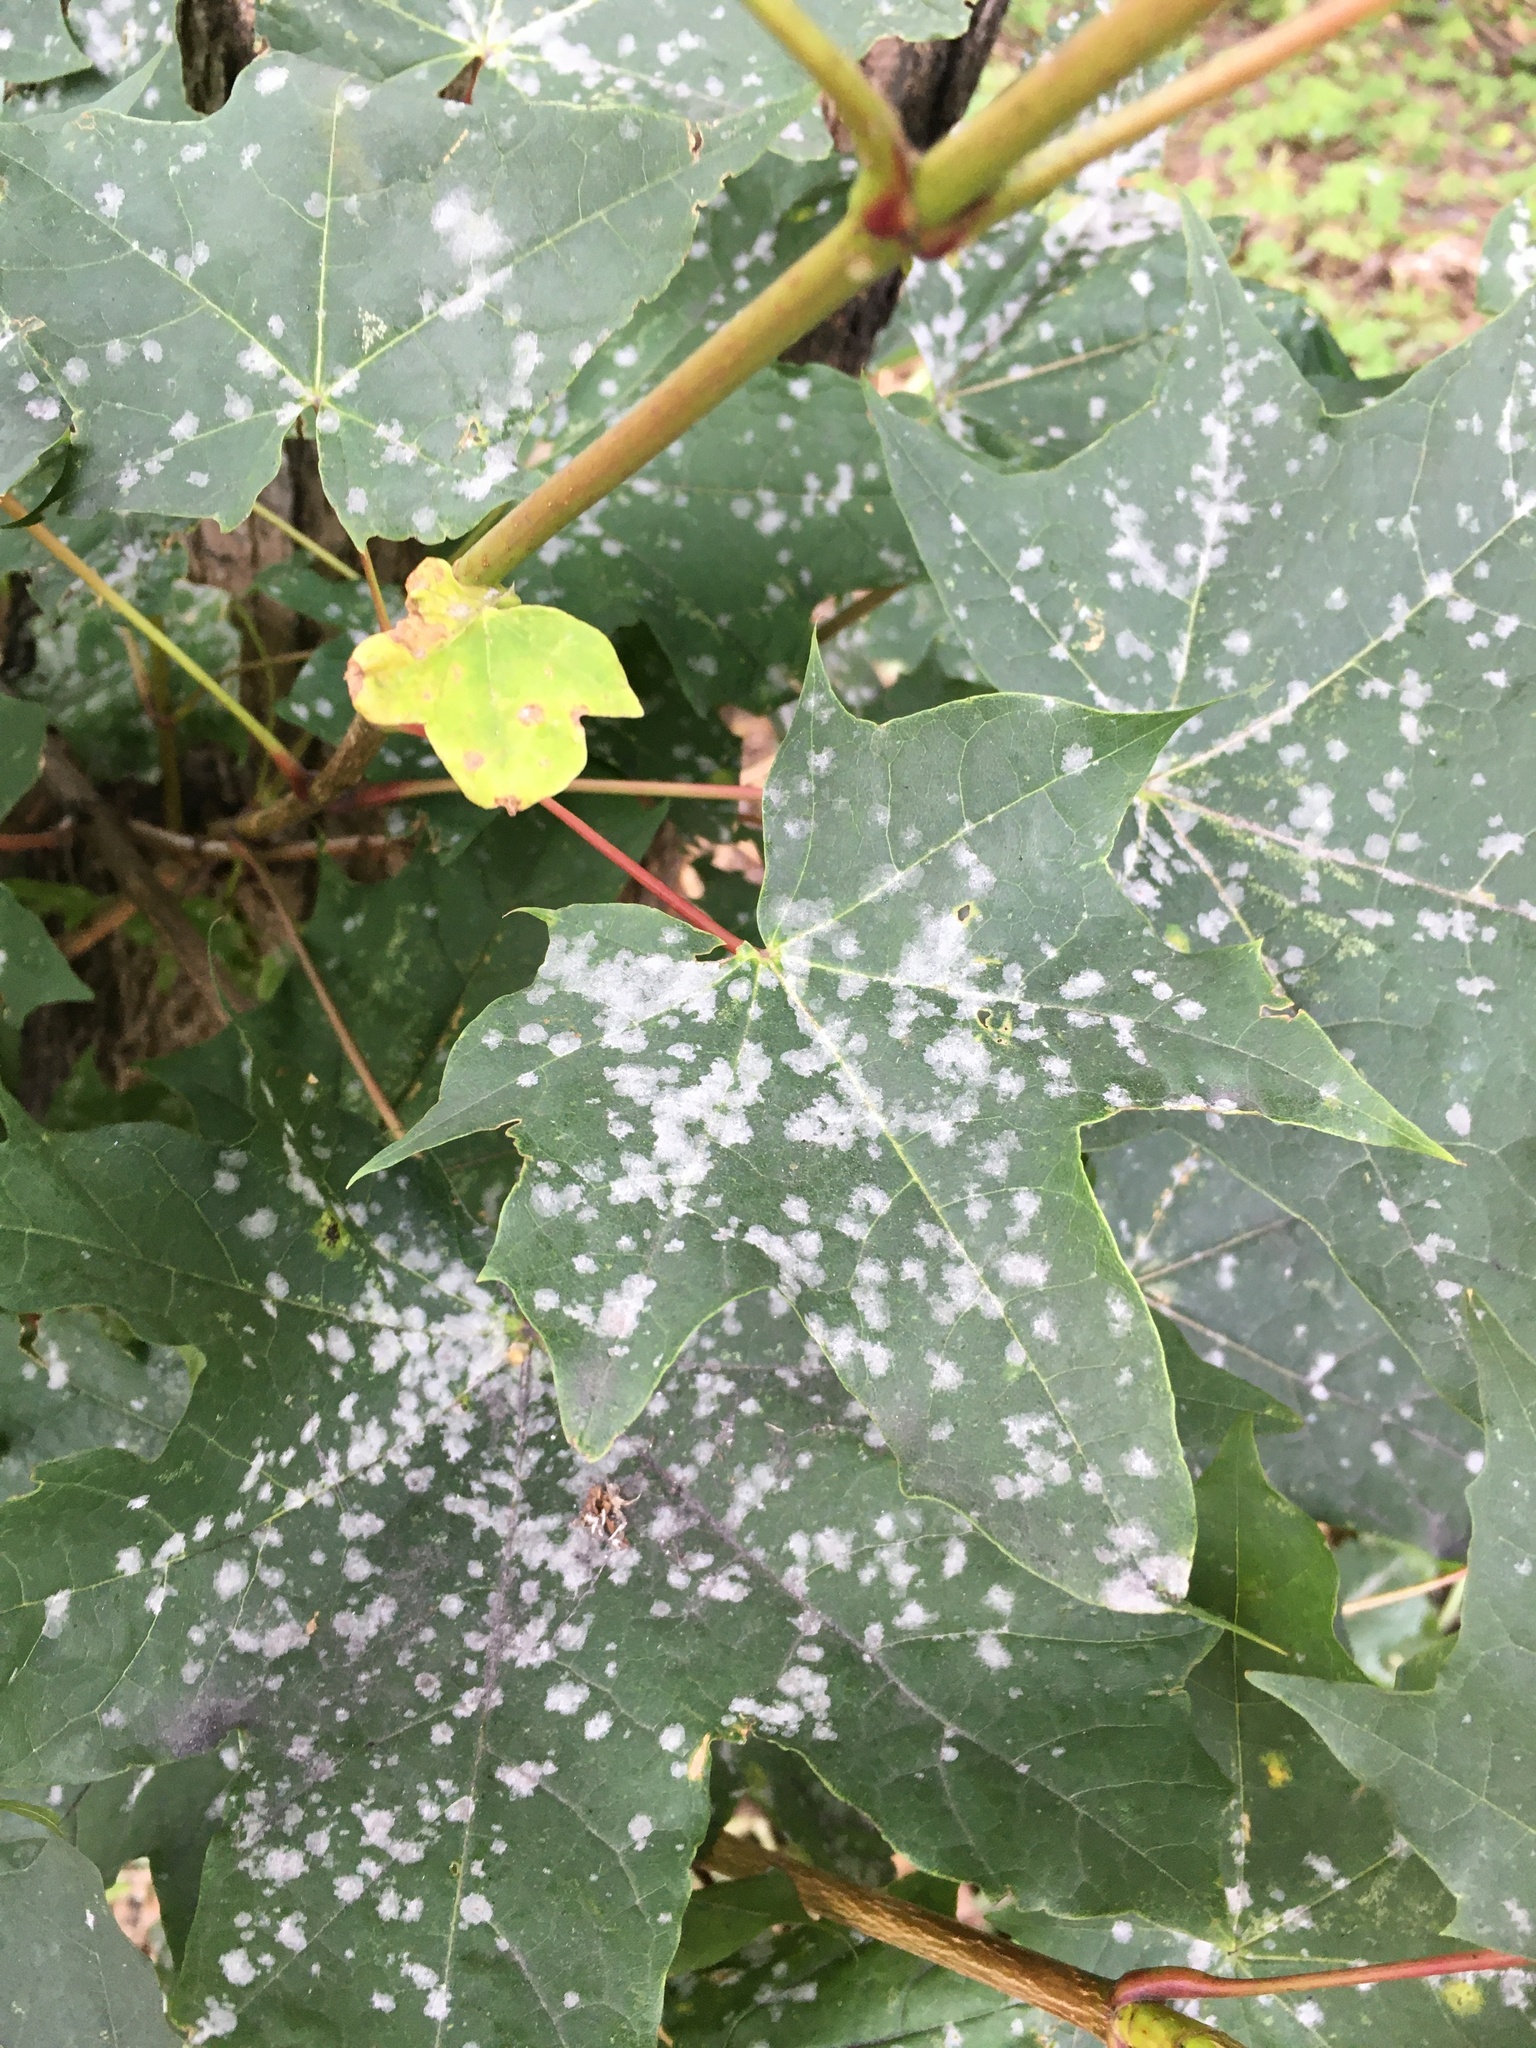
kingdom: Plantae
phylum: Tracheophyta
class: Magnoliopsida
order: Sapindales
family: Sapindaceae
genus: Acer
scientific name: Acer platanoides
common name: Norway maple
